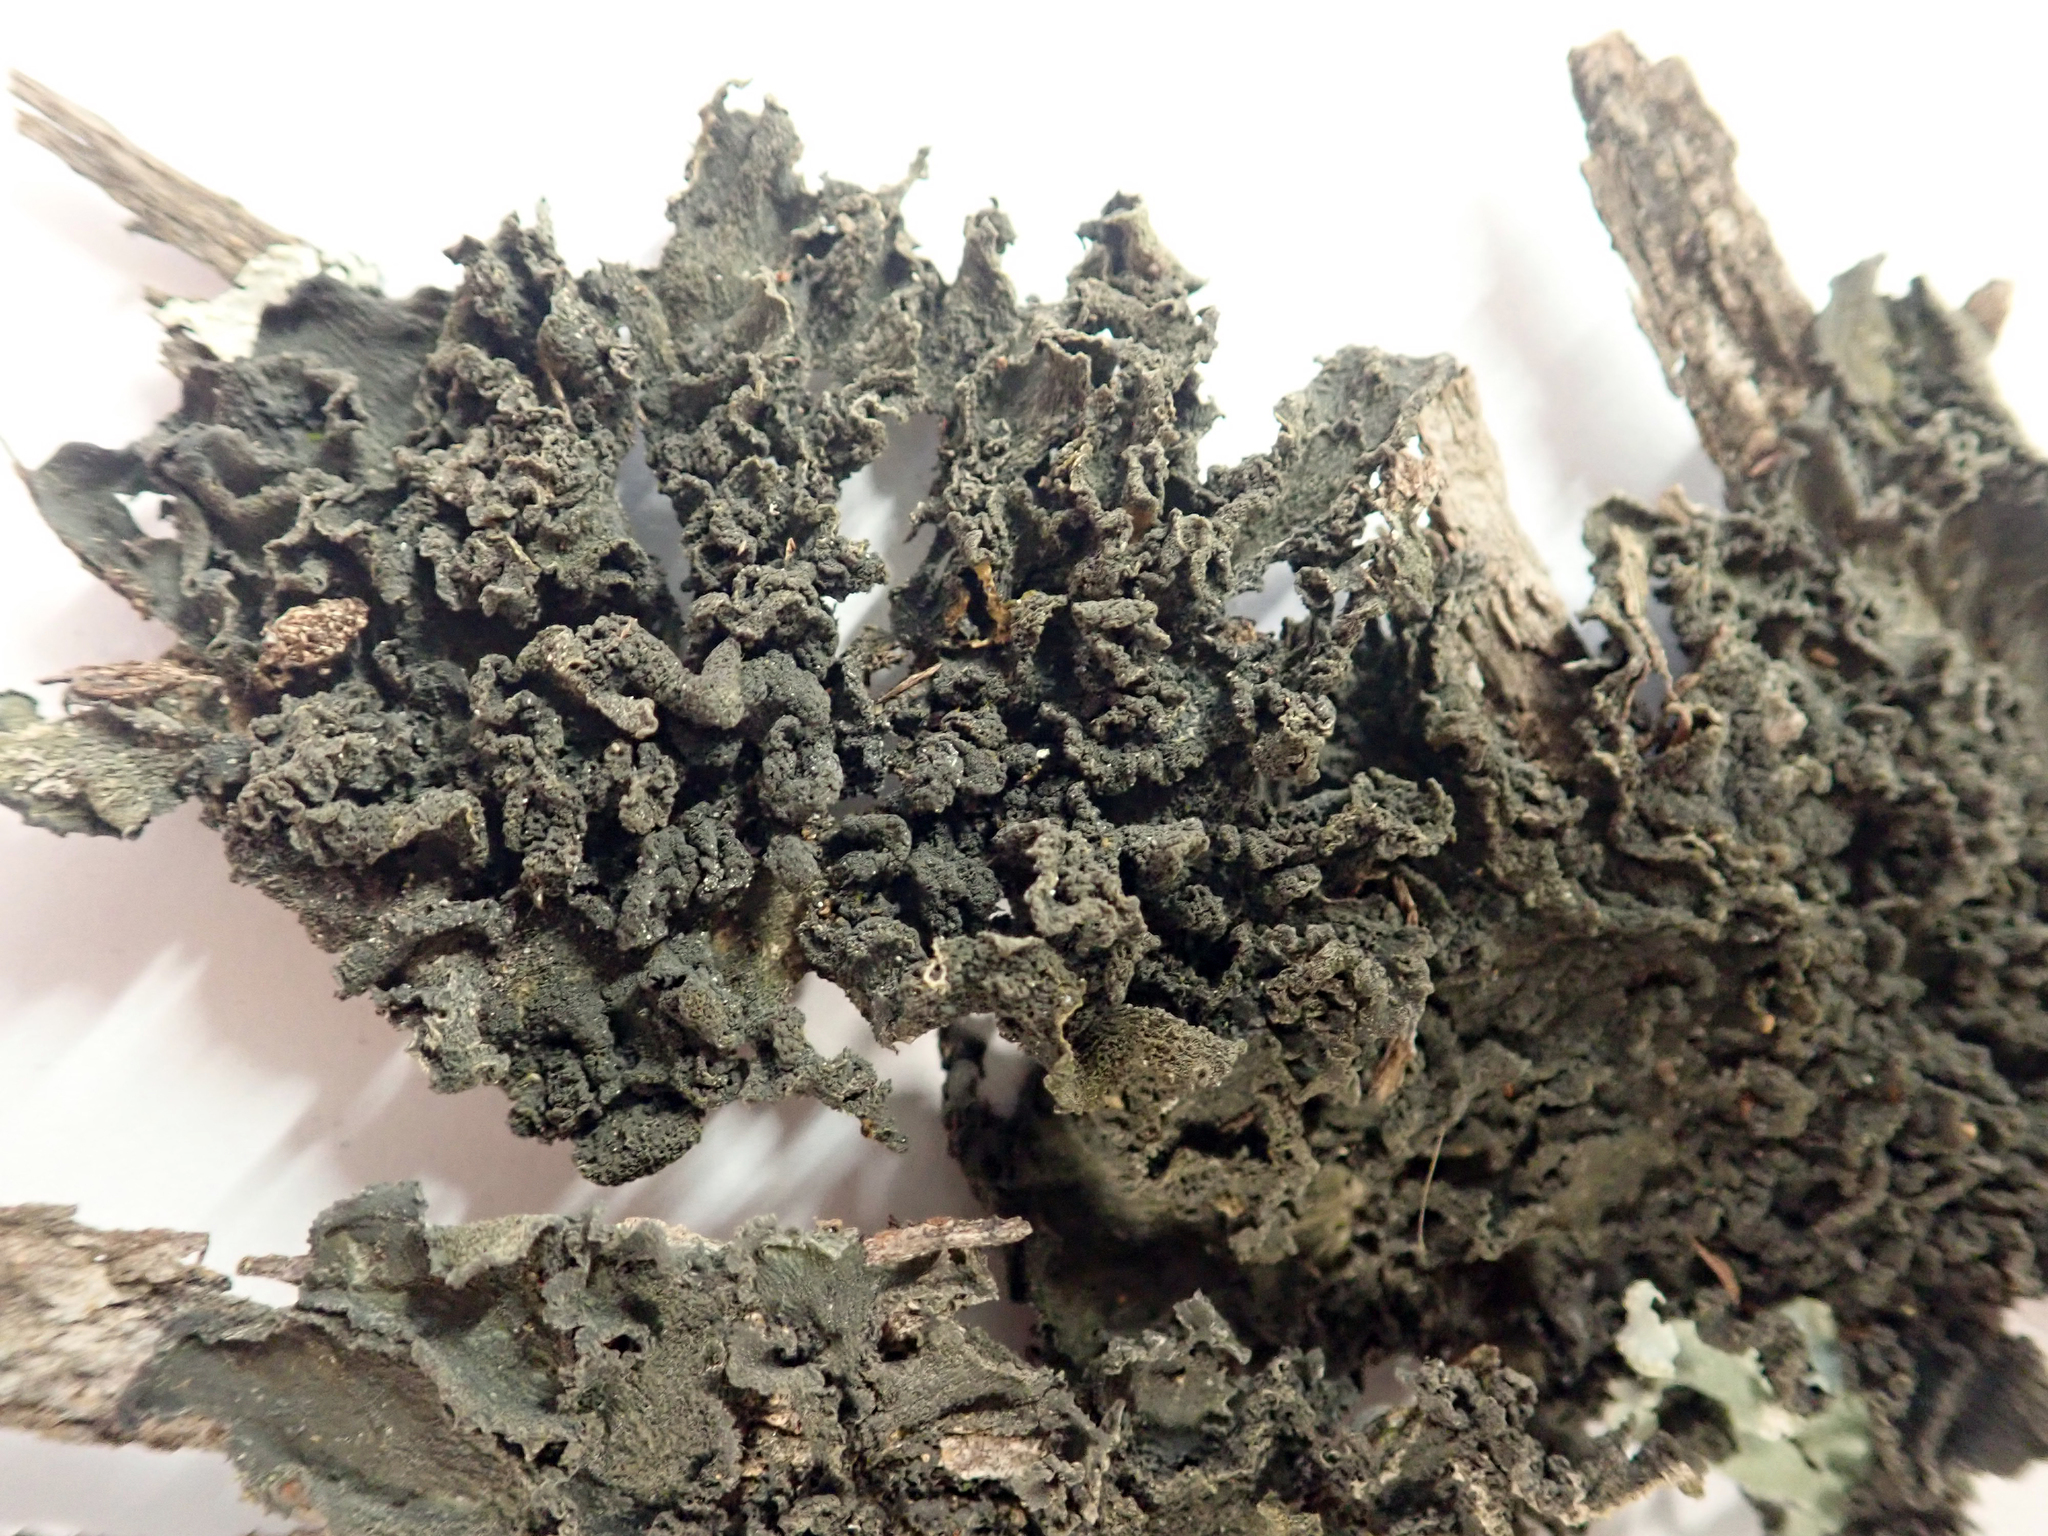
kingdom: Fungi
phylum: Ascomycota
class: Lecanoromycetes
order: Peltigerales
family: Collemataceae
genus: Leptogium
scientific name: Leptogium coralloideum
